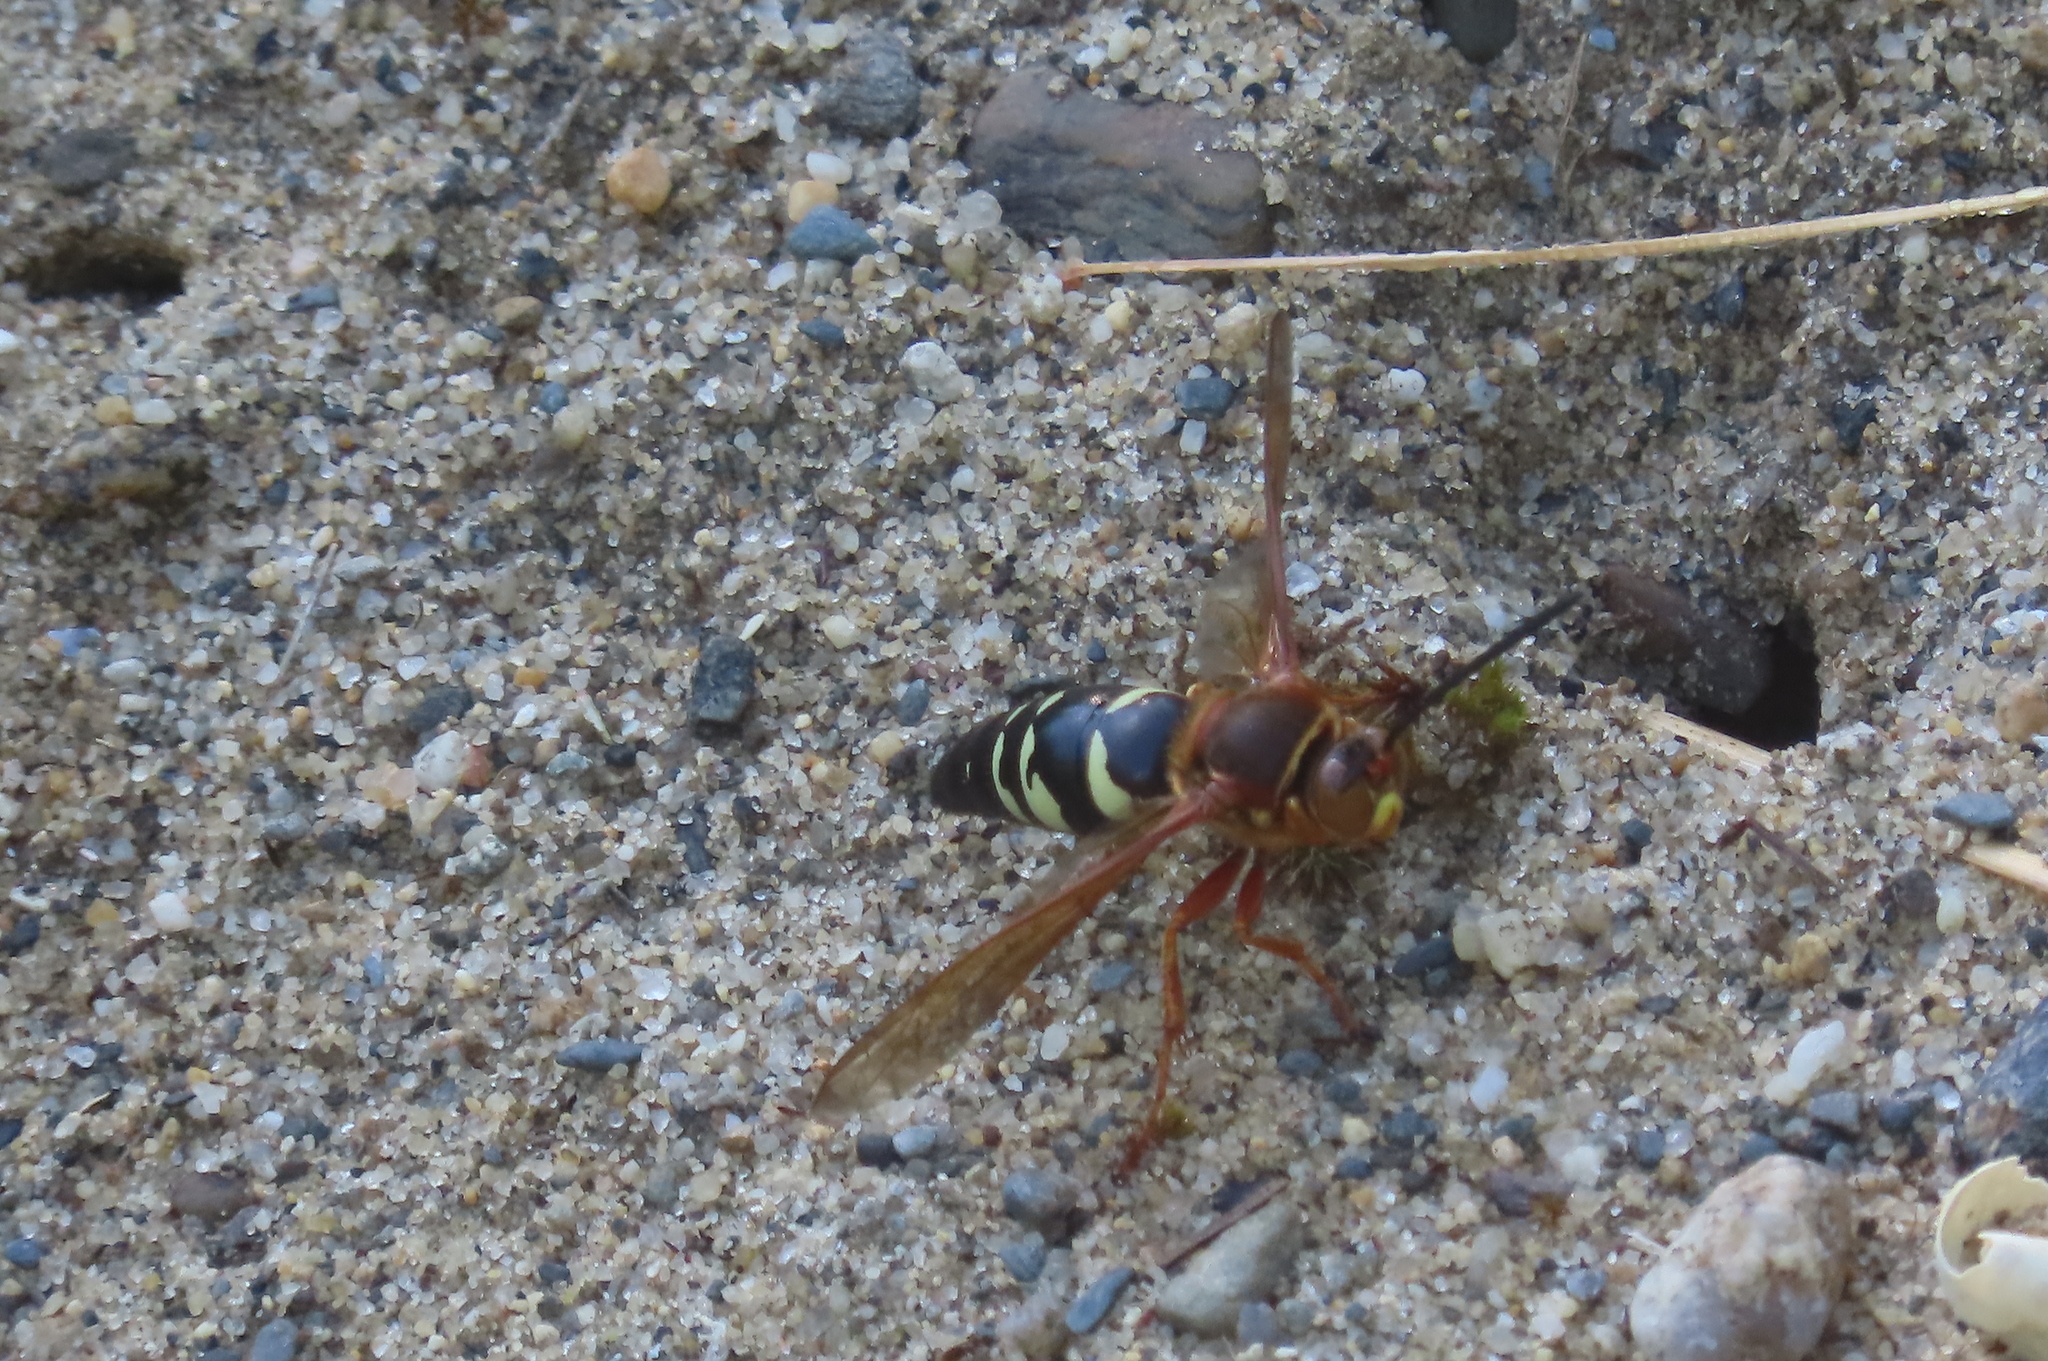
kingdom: Animalia
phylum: Arthropoda
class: Insecta
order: Hymenoptera
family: Crabronidae
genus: Sphecius
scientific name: Sphecius speciosus
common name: Cicada killer
